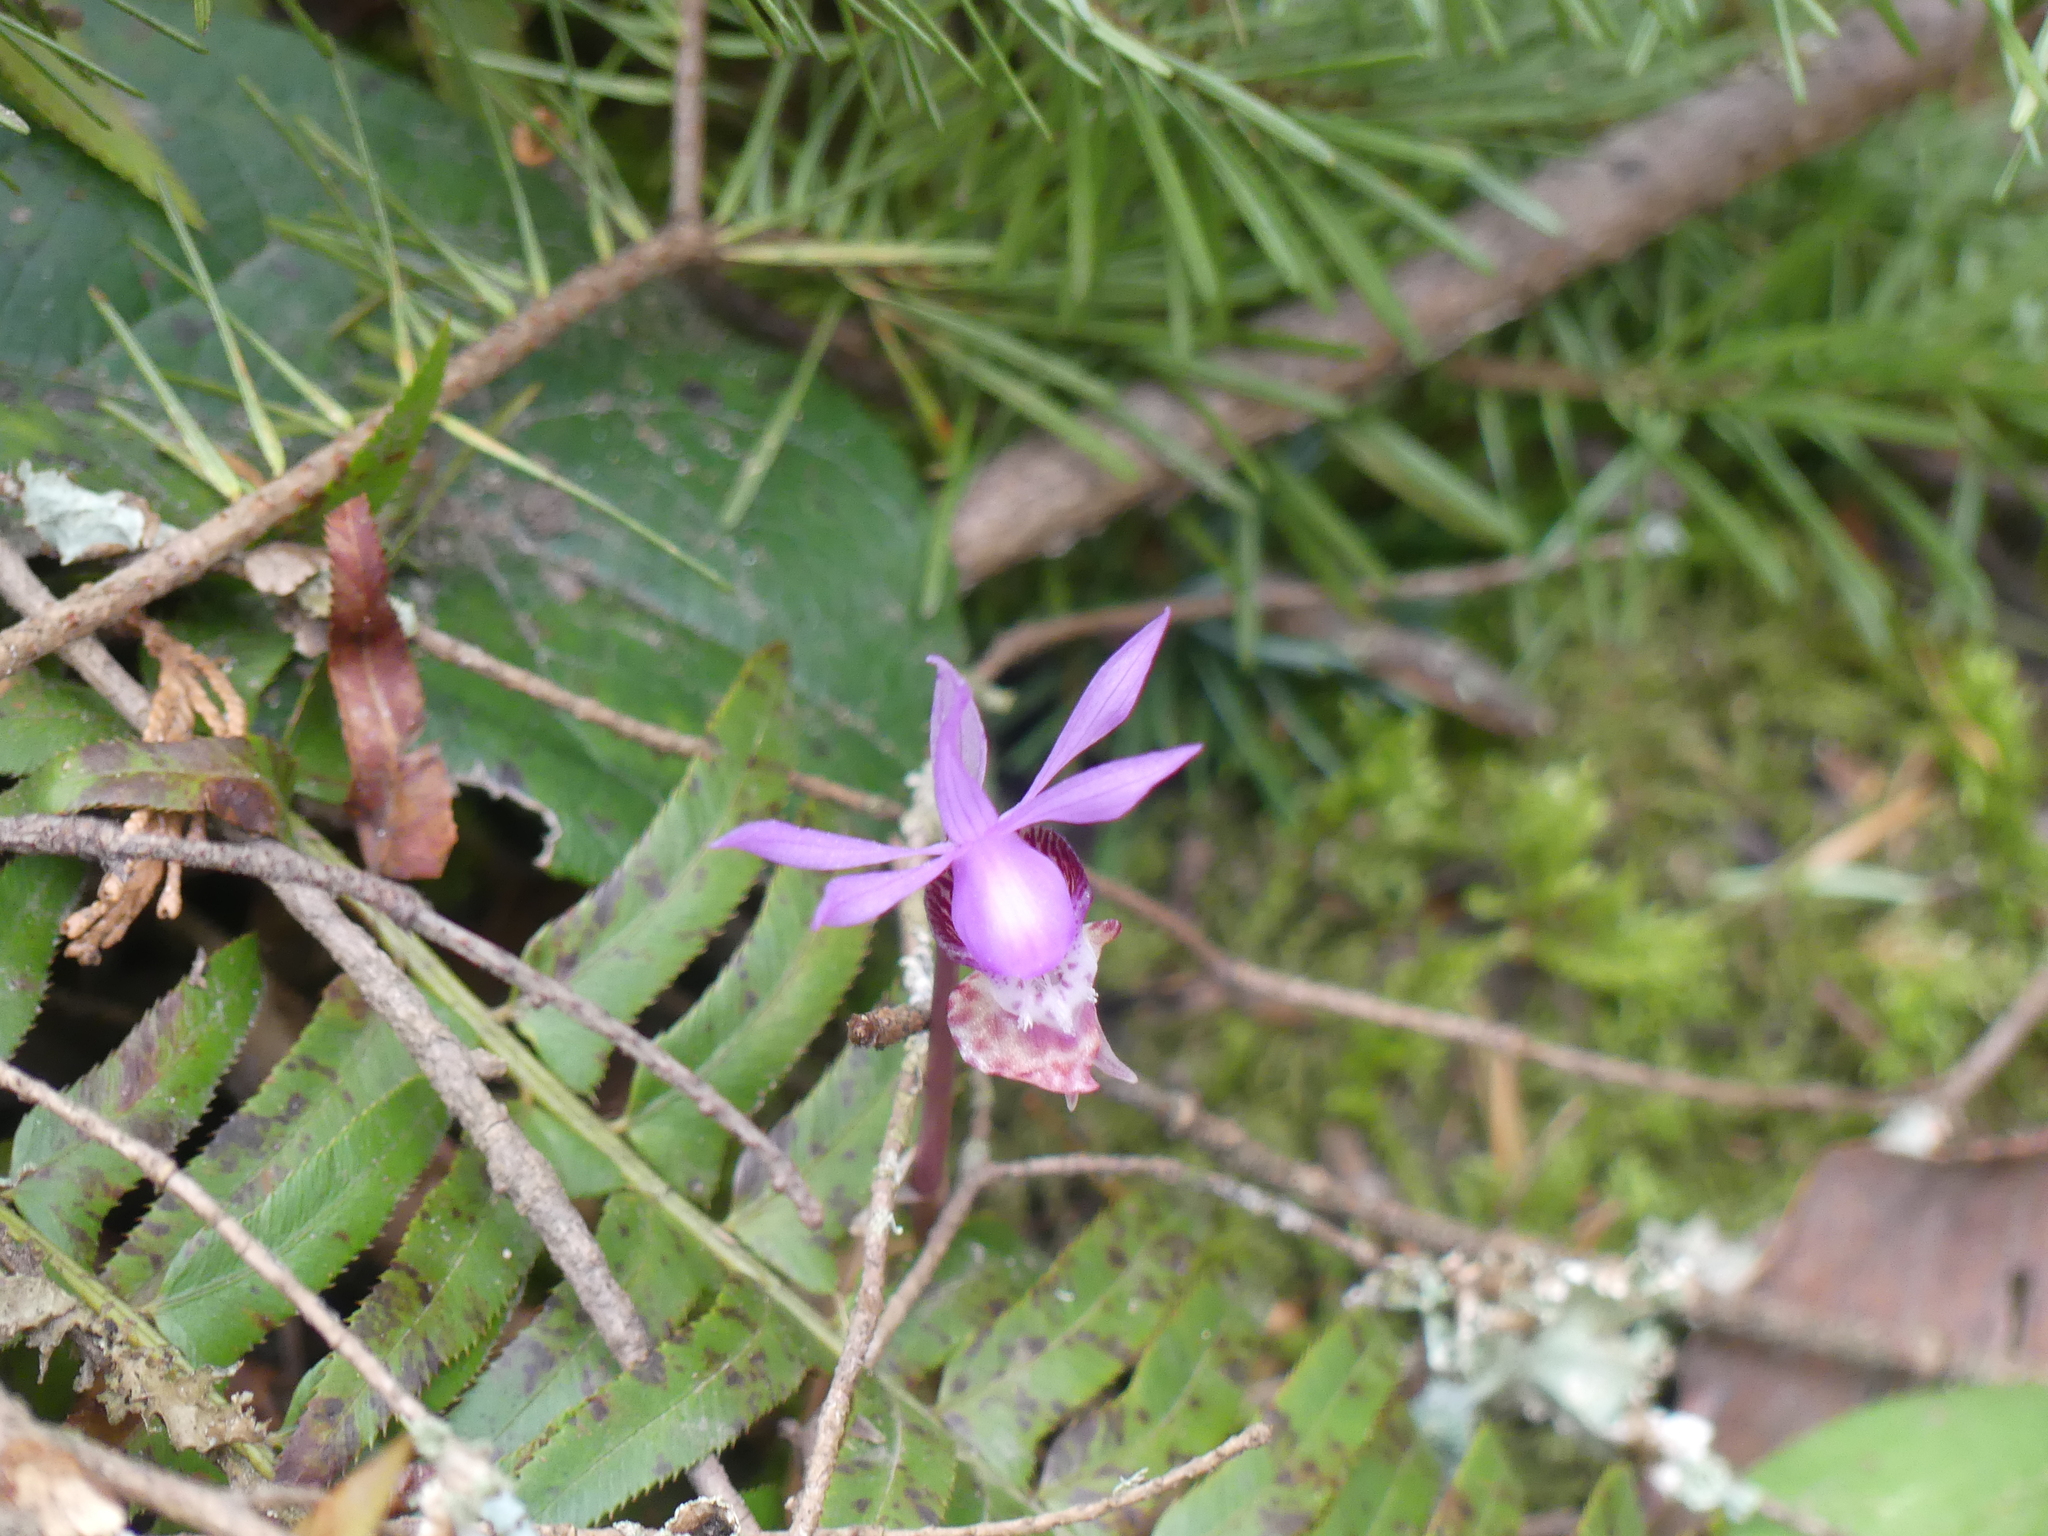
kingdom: Plantae
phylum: Tracheophyta
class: Liliopsida
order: Asparagales
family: Orchidaceae
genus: Calypso
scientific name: Calypso bulbosa
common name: Calypso
